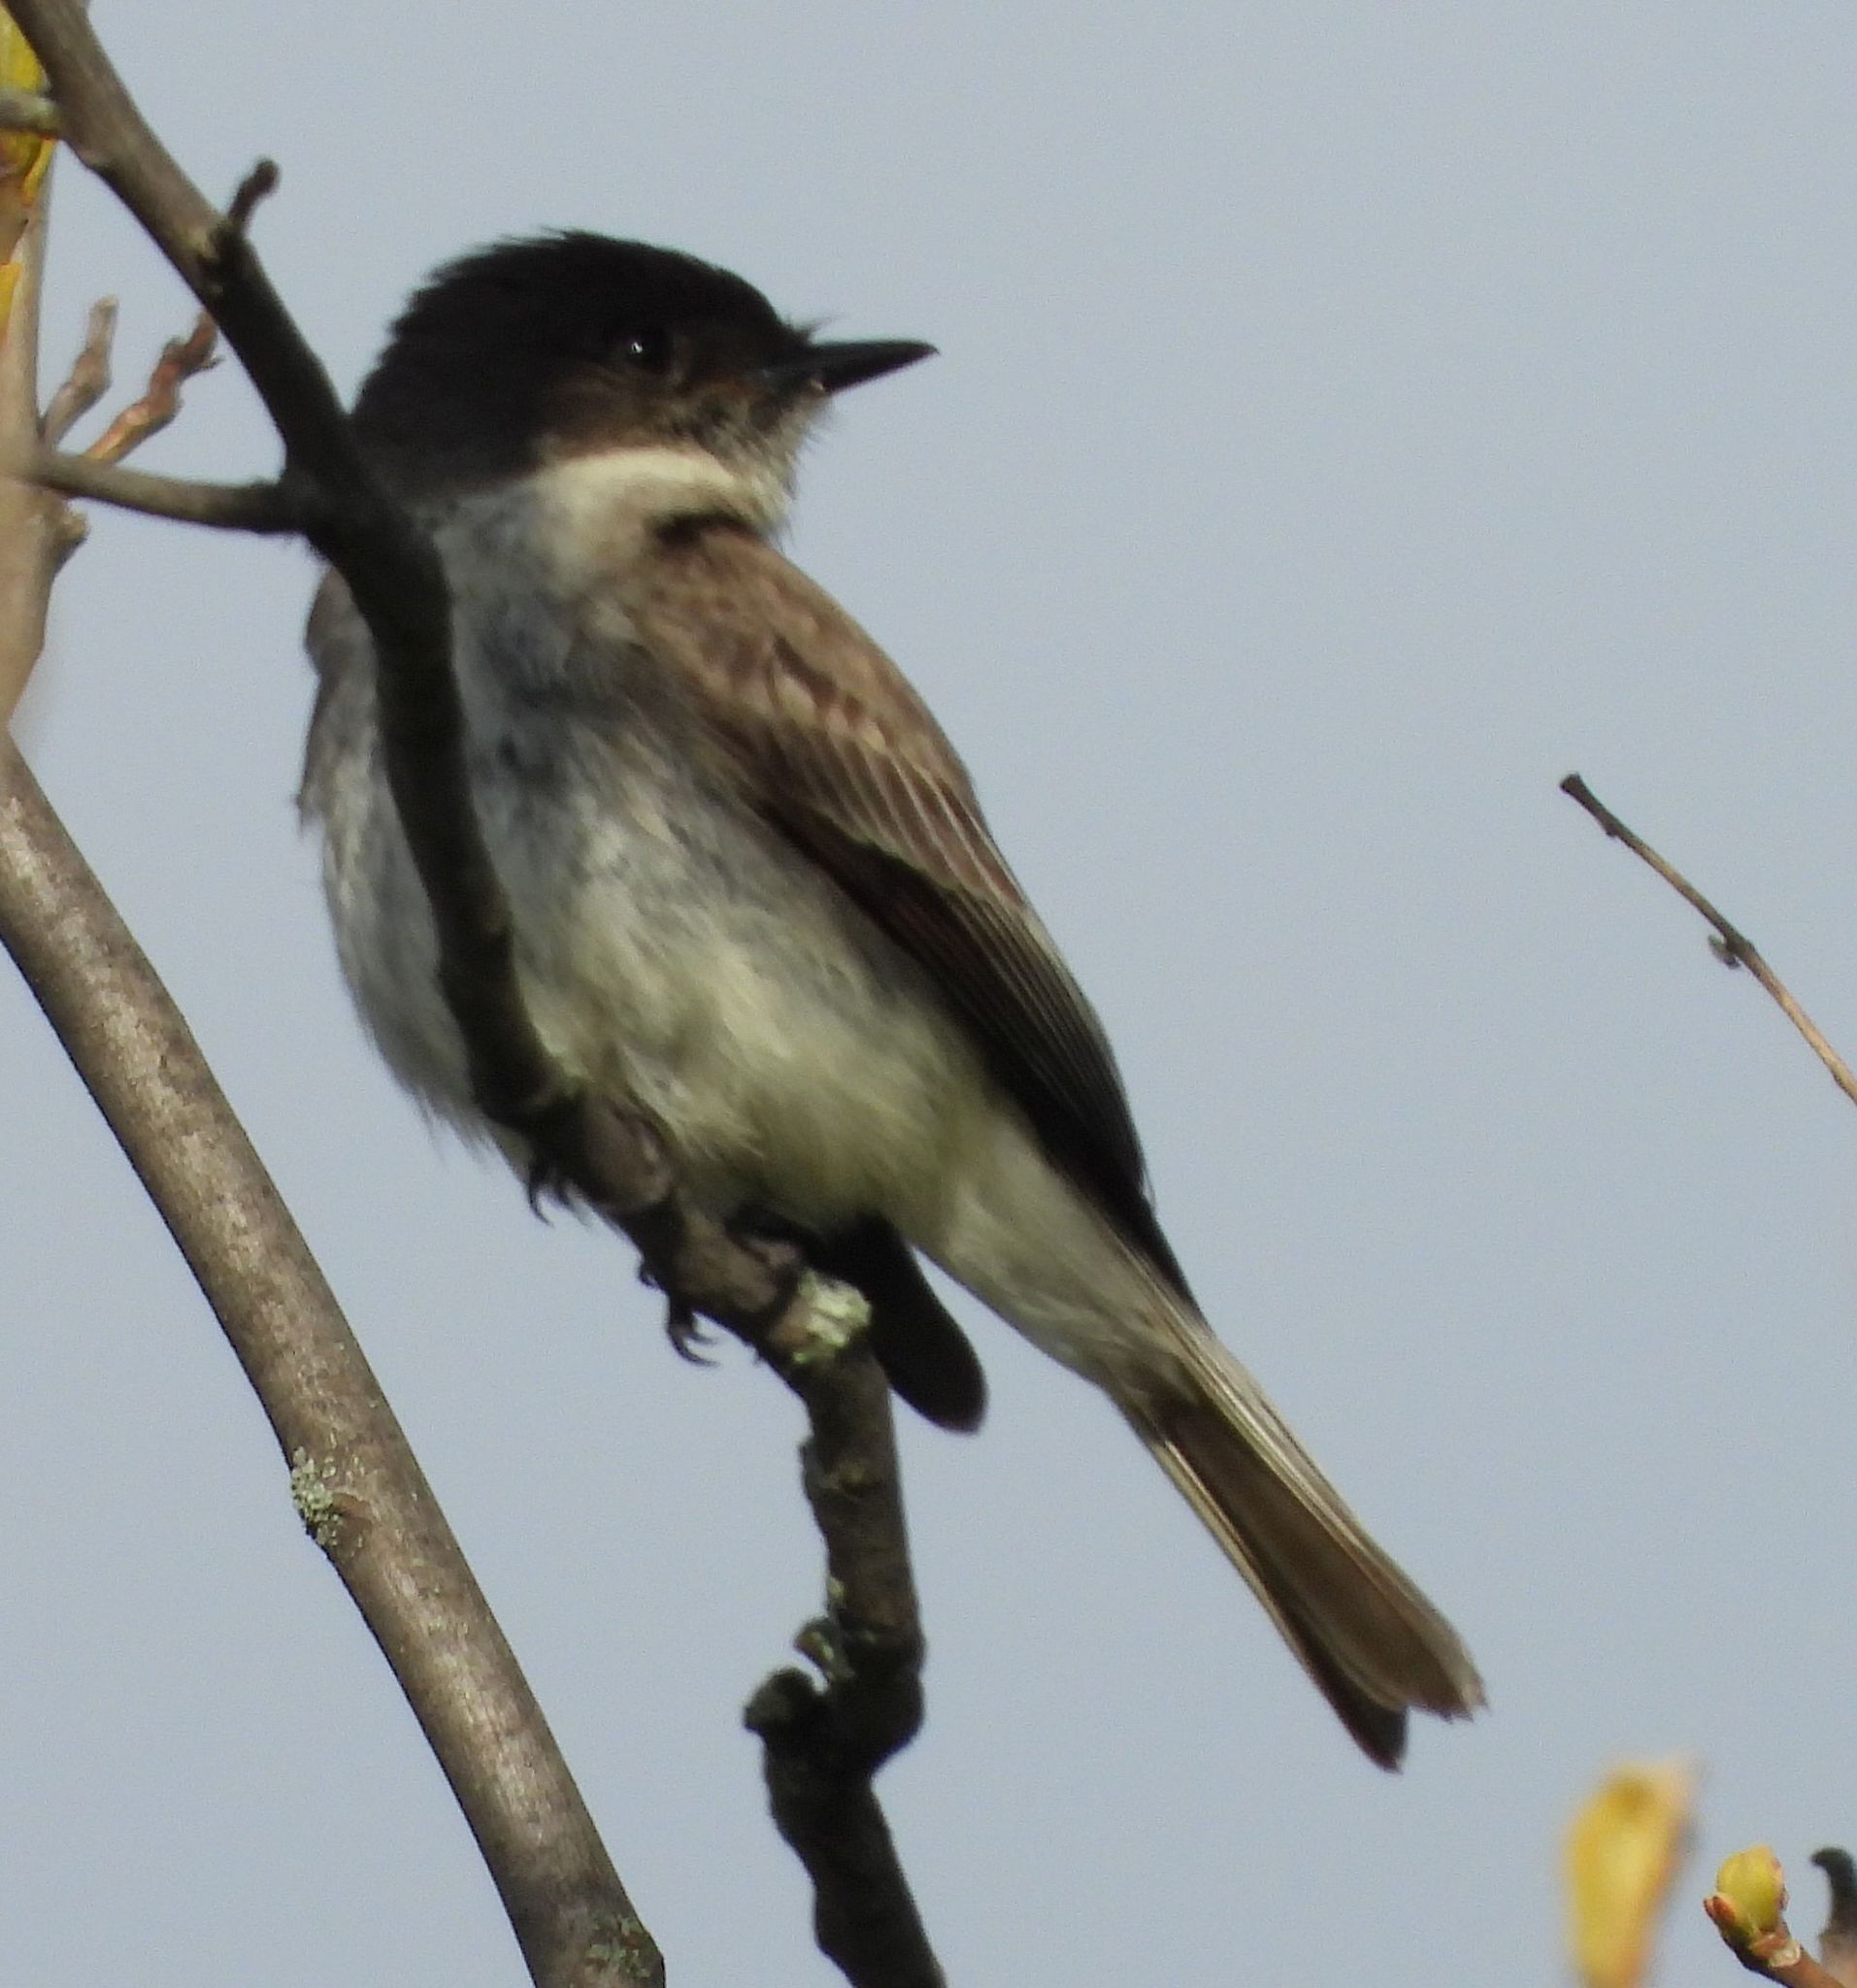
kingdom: Animalia
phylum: Chordata
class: Aves
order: Passeriformes
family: Tyrannidae
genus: Sayornis
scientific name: Sayornis phoebe
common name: Eastern phoebe
